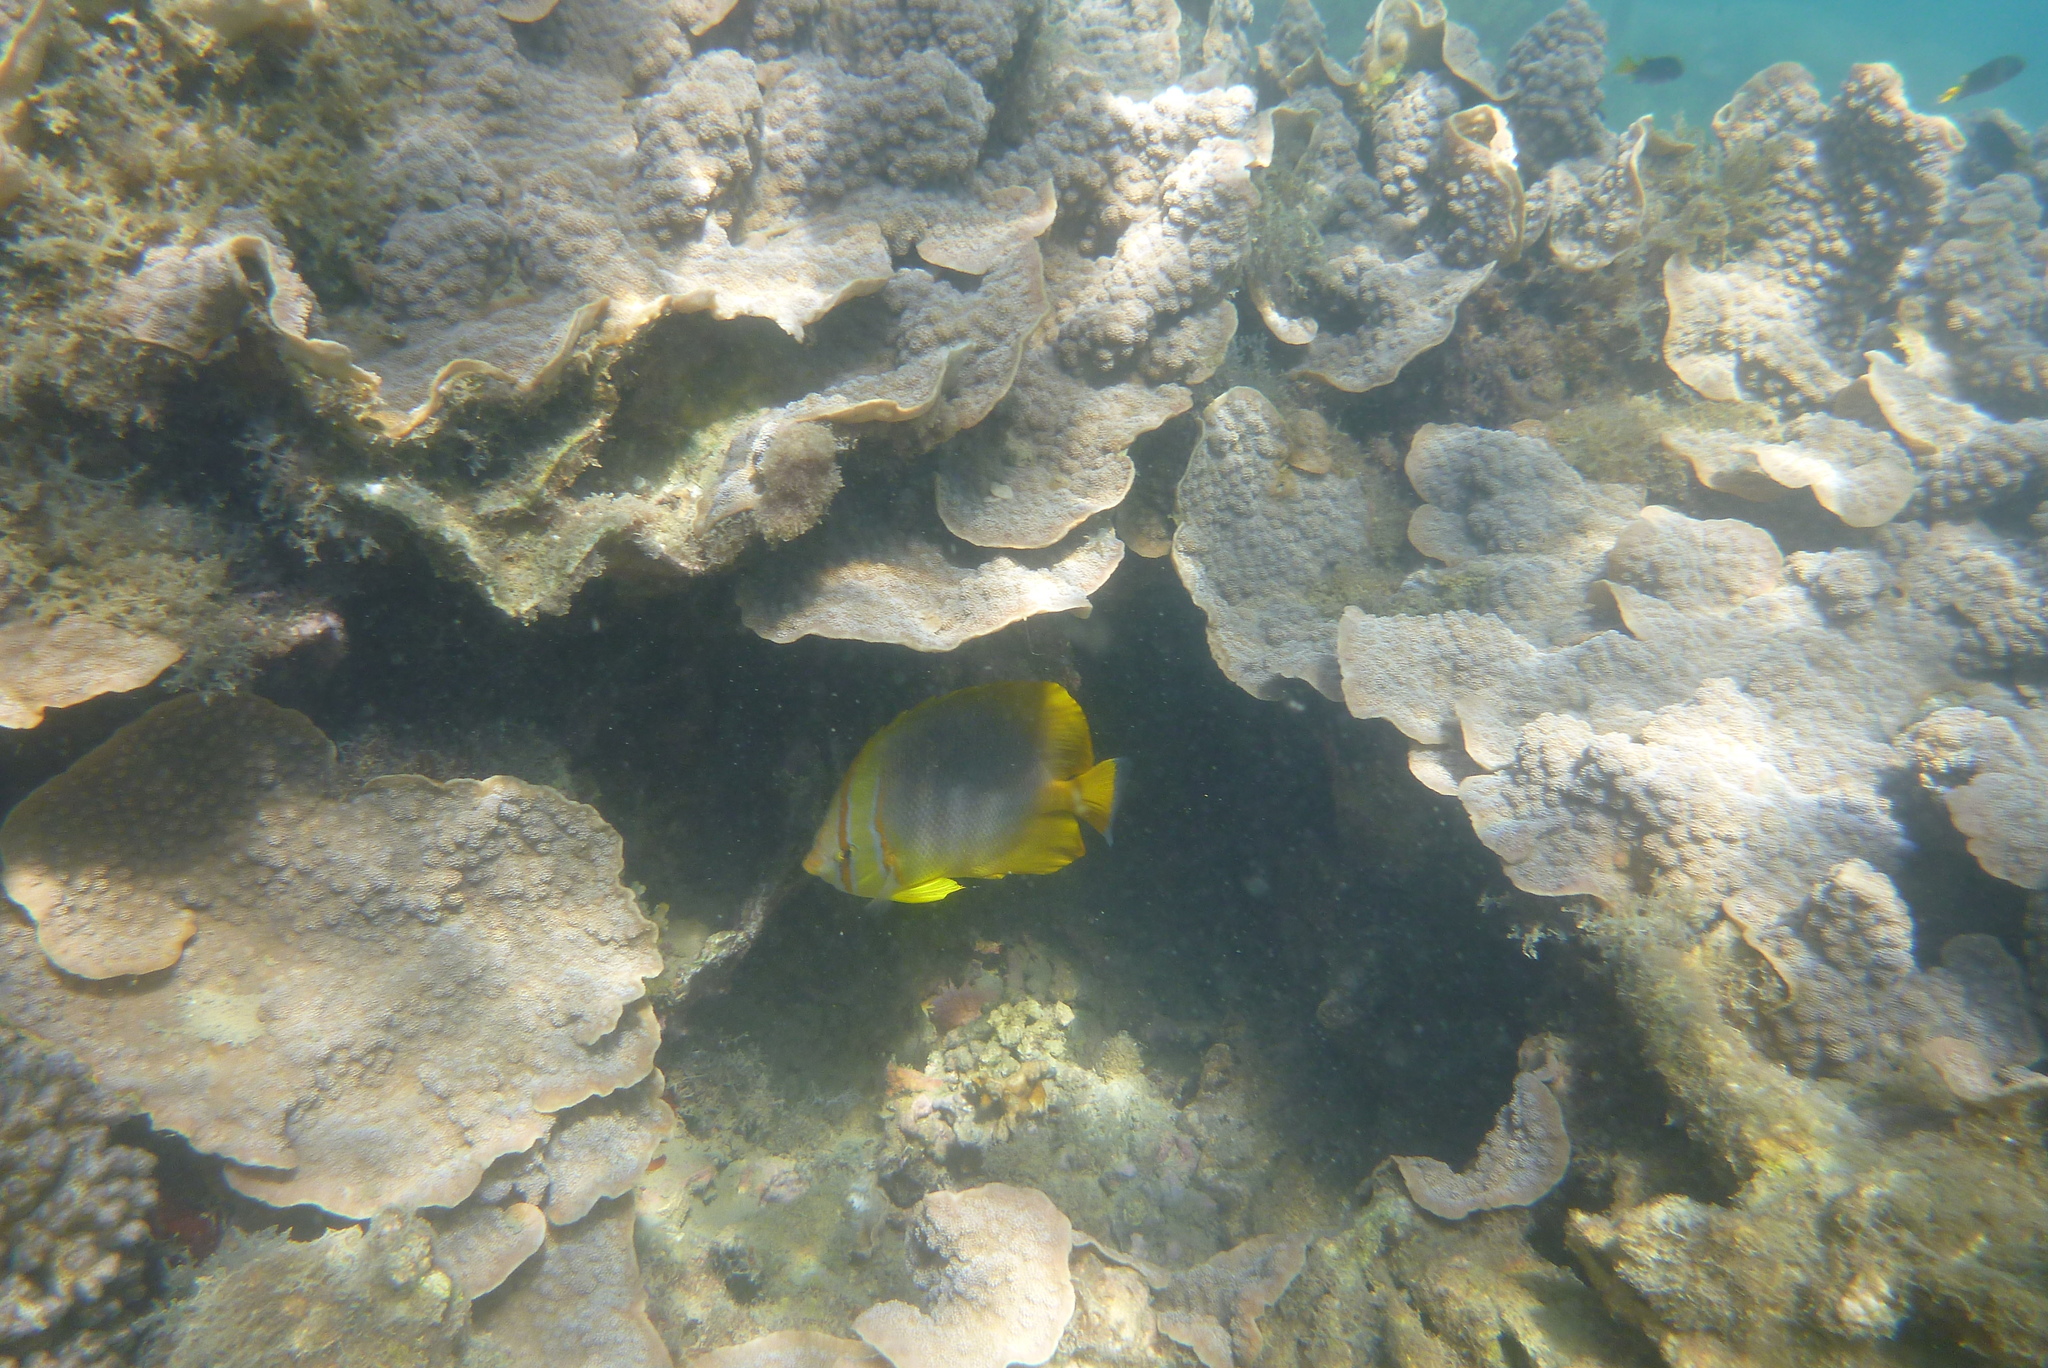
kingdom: Animalia
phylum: Chordata
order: Perciformes
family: Chaetodontidae
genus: Chaetodon
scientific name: Chaetodon aureofasciatus
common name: Golden butterflyfish
